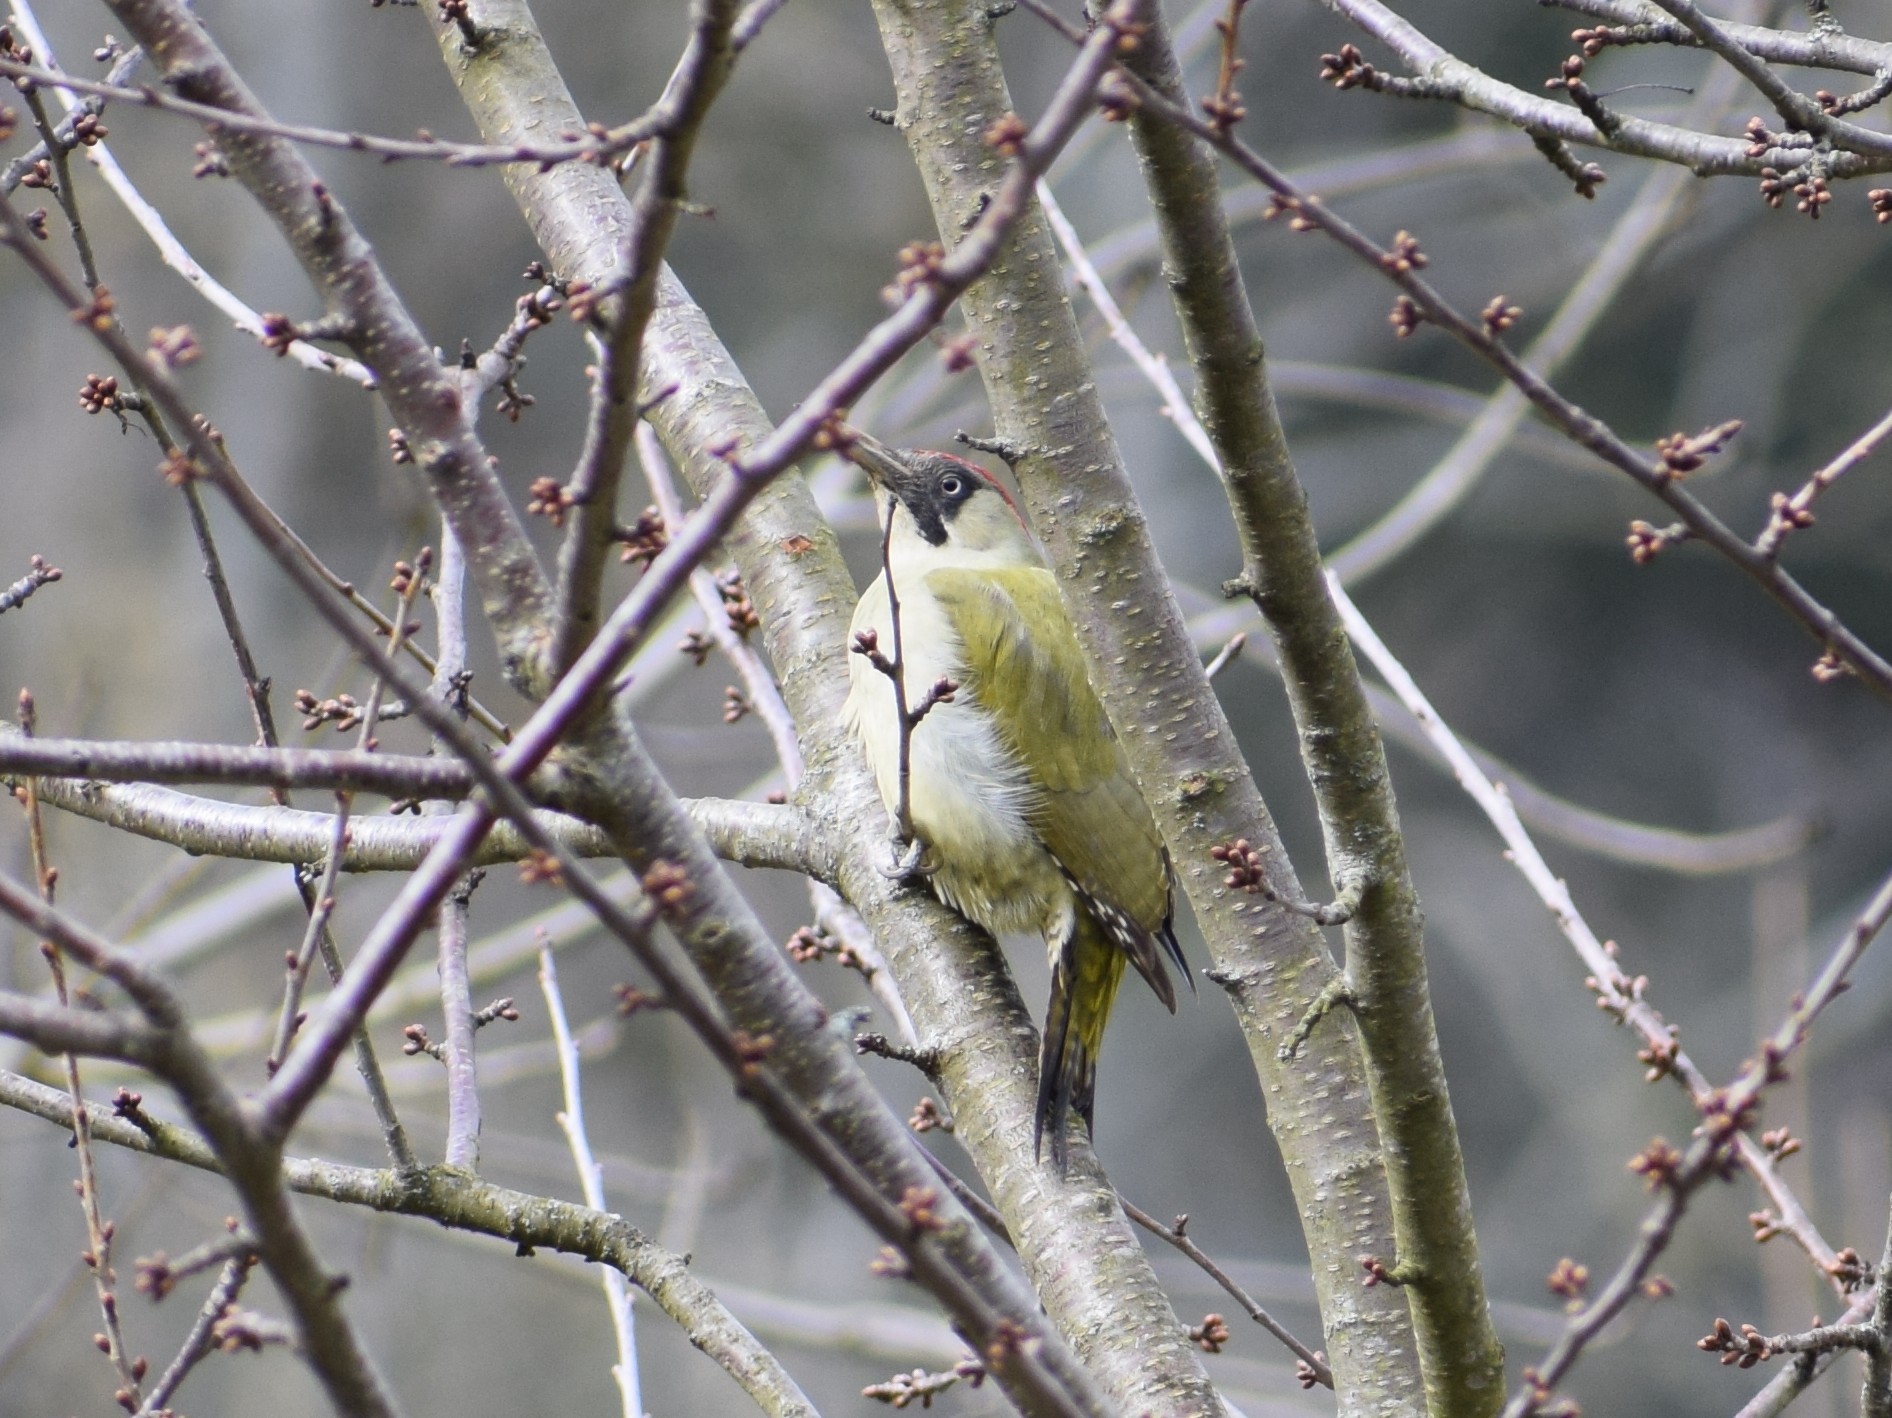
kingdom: Animalia
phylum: Chordata
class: Aves
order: Piciformes
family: Picidae
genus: Picus
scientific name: Picus viridis
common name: European green woodpecker
